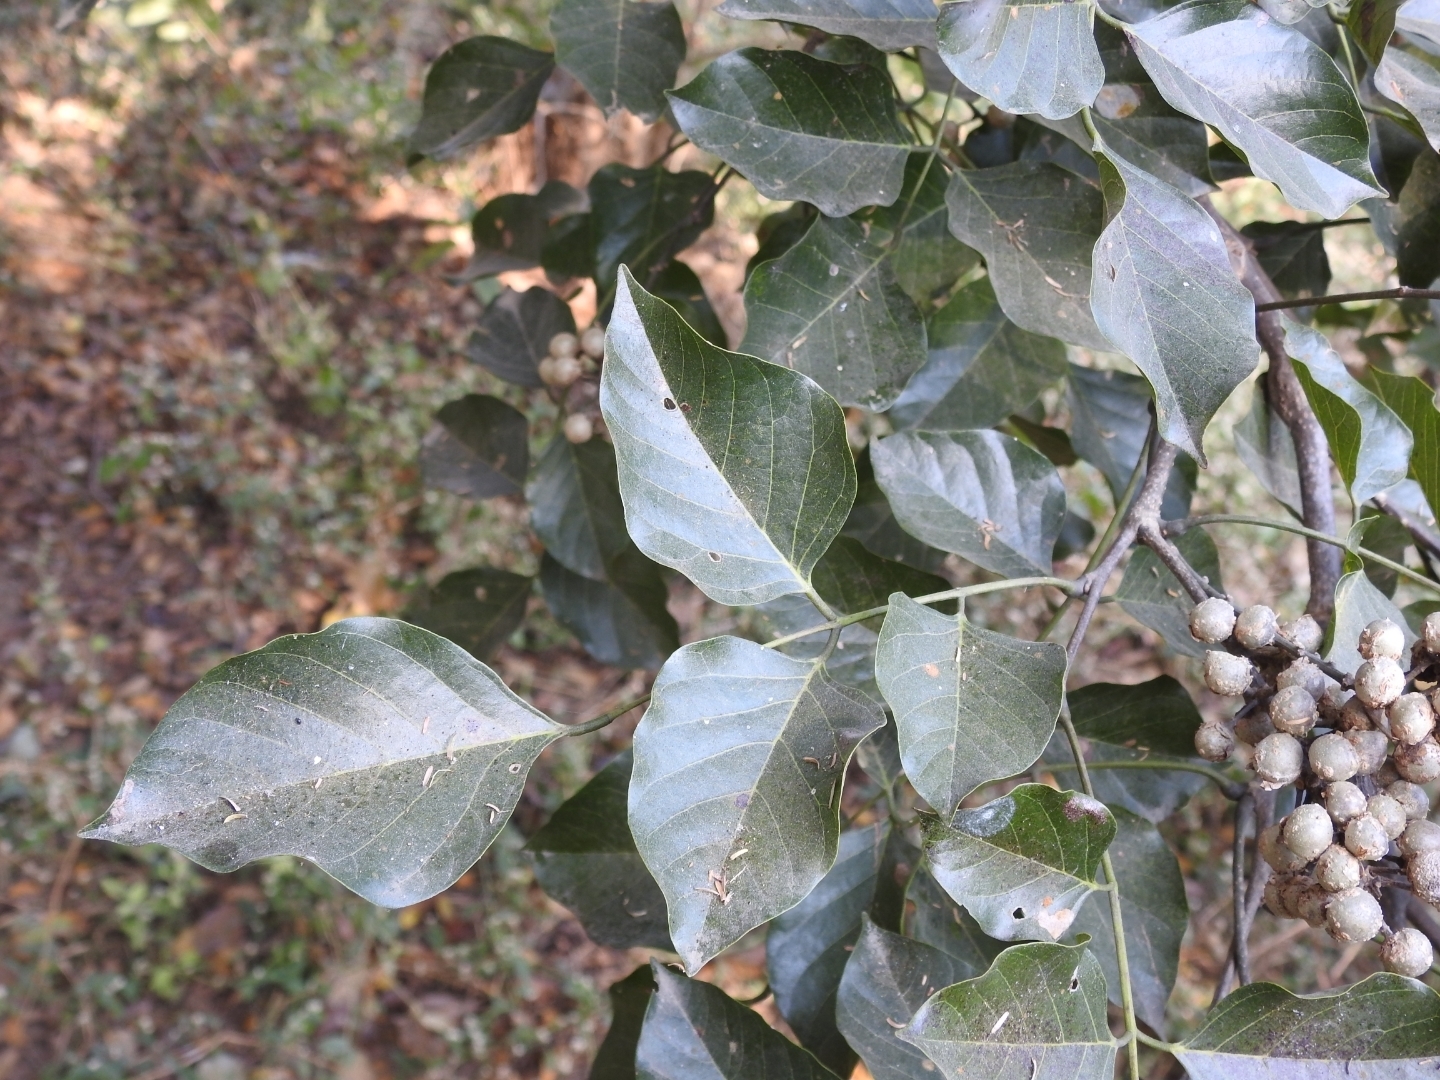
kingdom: Plantae
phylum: Tracheophyta
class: Magnoliopsida
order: Fabales
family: Fabaceae
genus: Pongamia
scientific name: Pongamia pinnata
